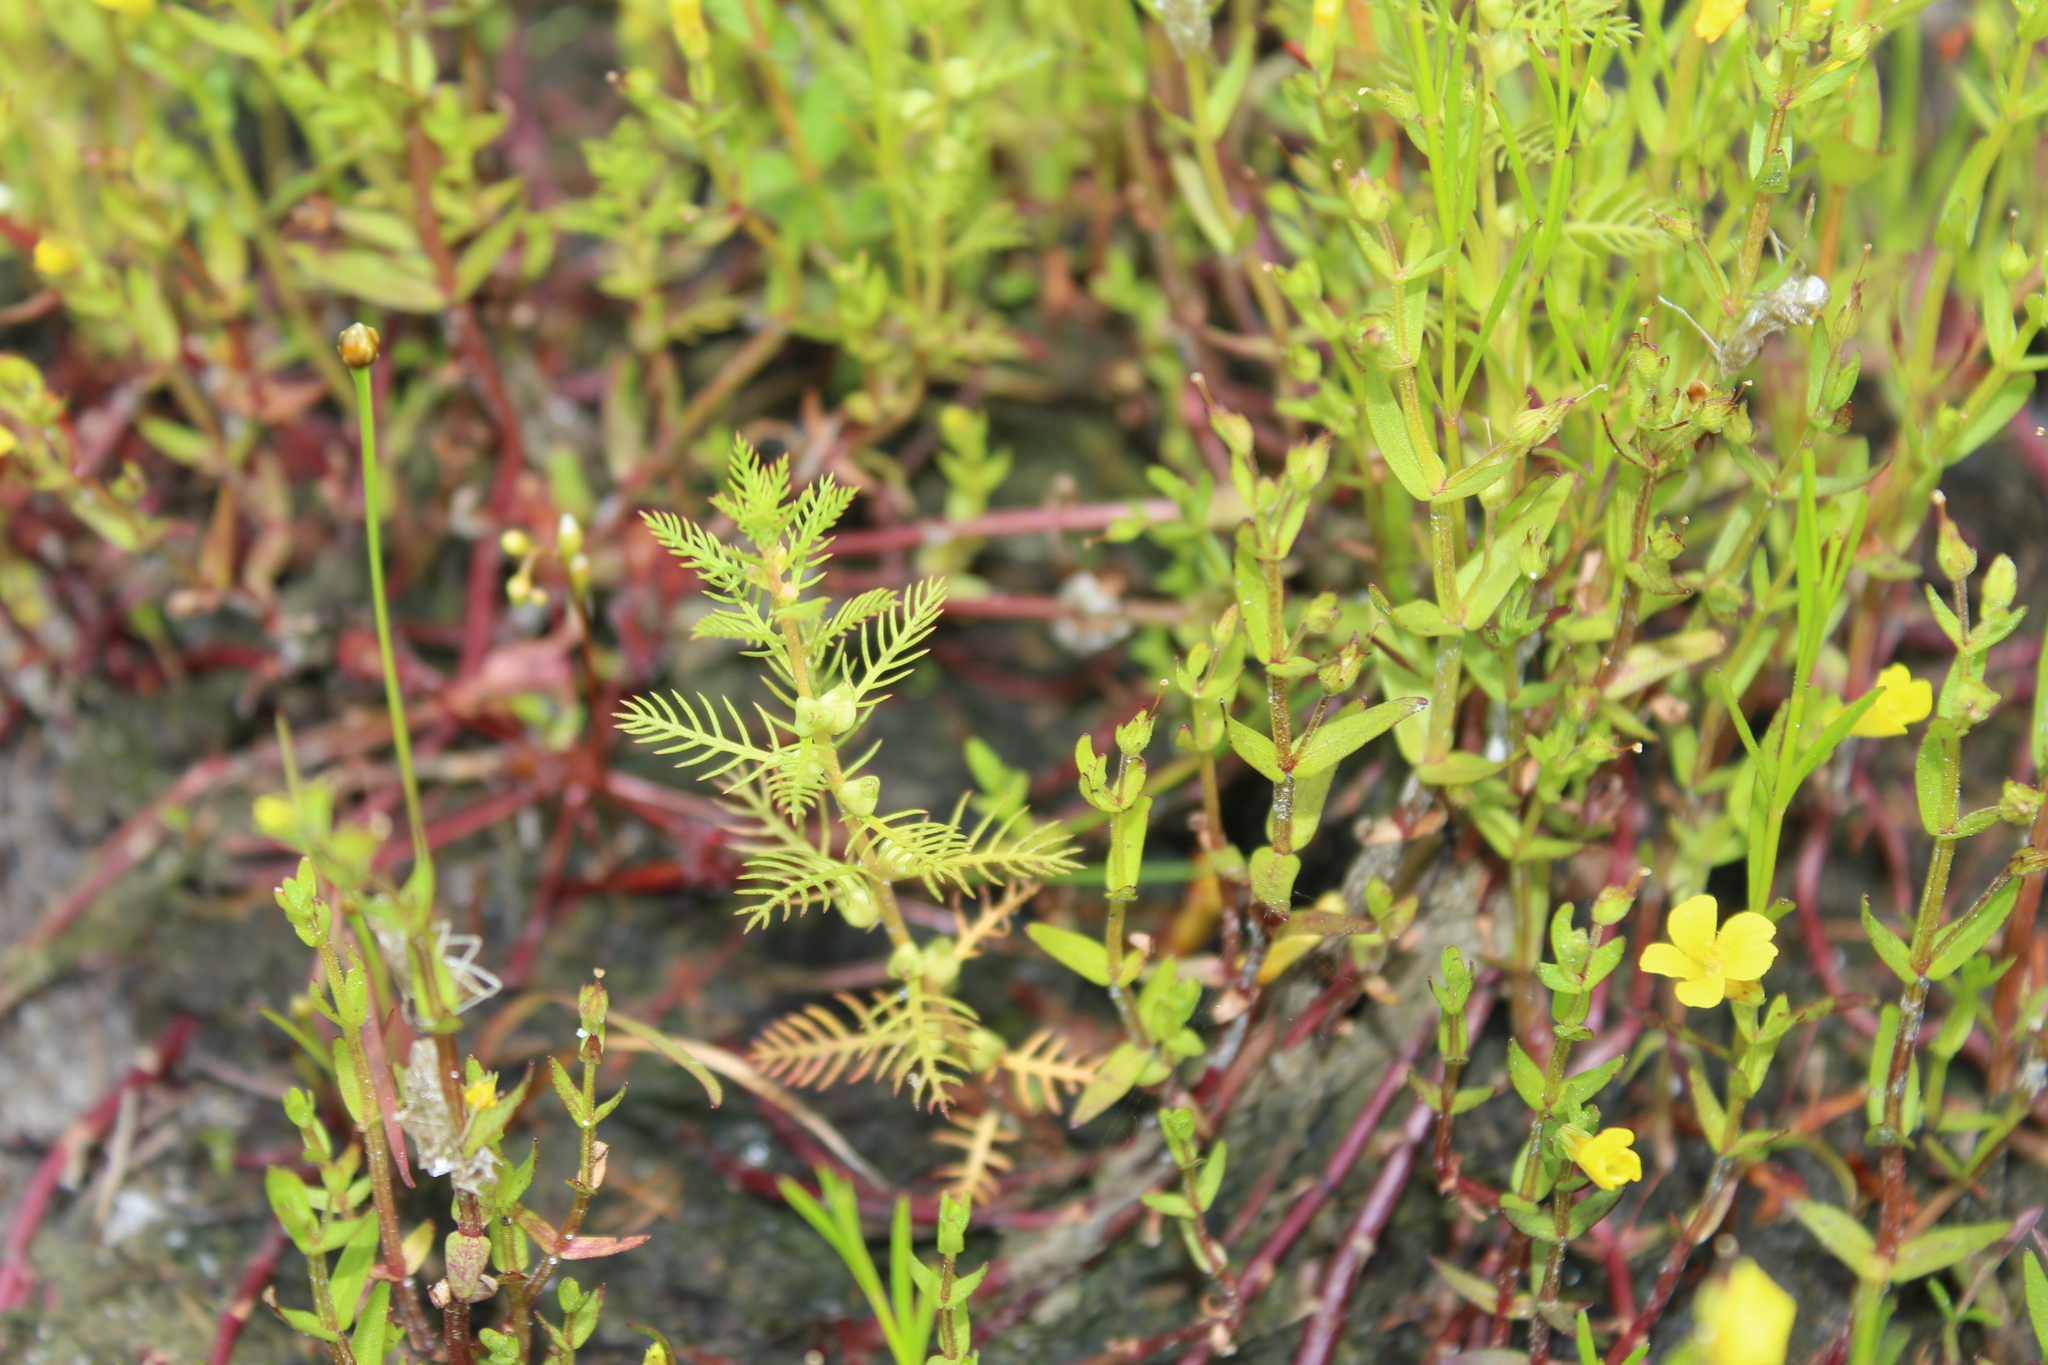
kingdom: Plantae
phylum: Tracheophyta
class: Magnoliopsida
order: Saxifragales
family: Haloragaceae
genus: Proserpinaca
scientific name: Proserpinaca pectinata
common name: Comb-leaved mermaidweed
